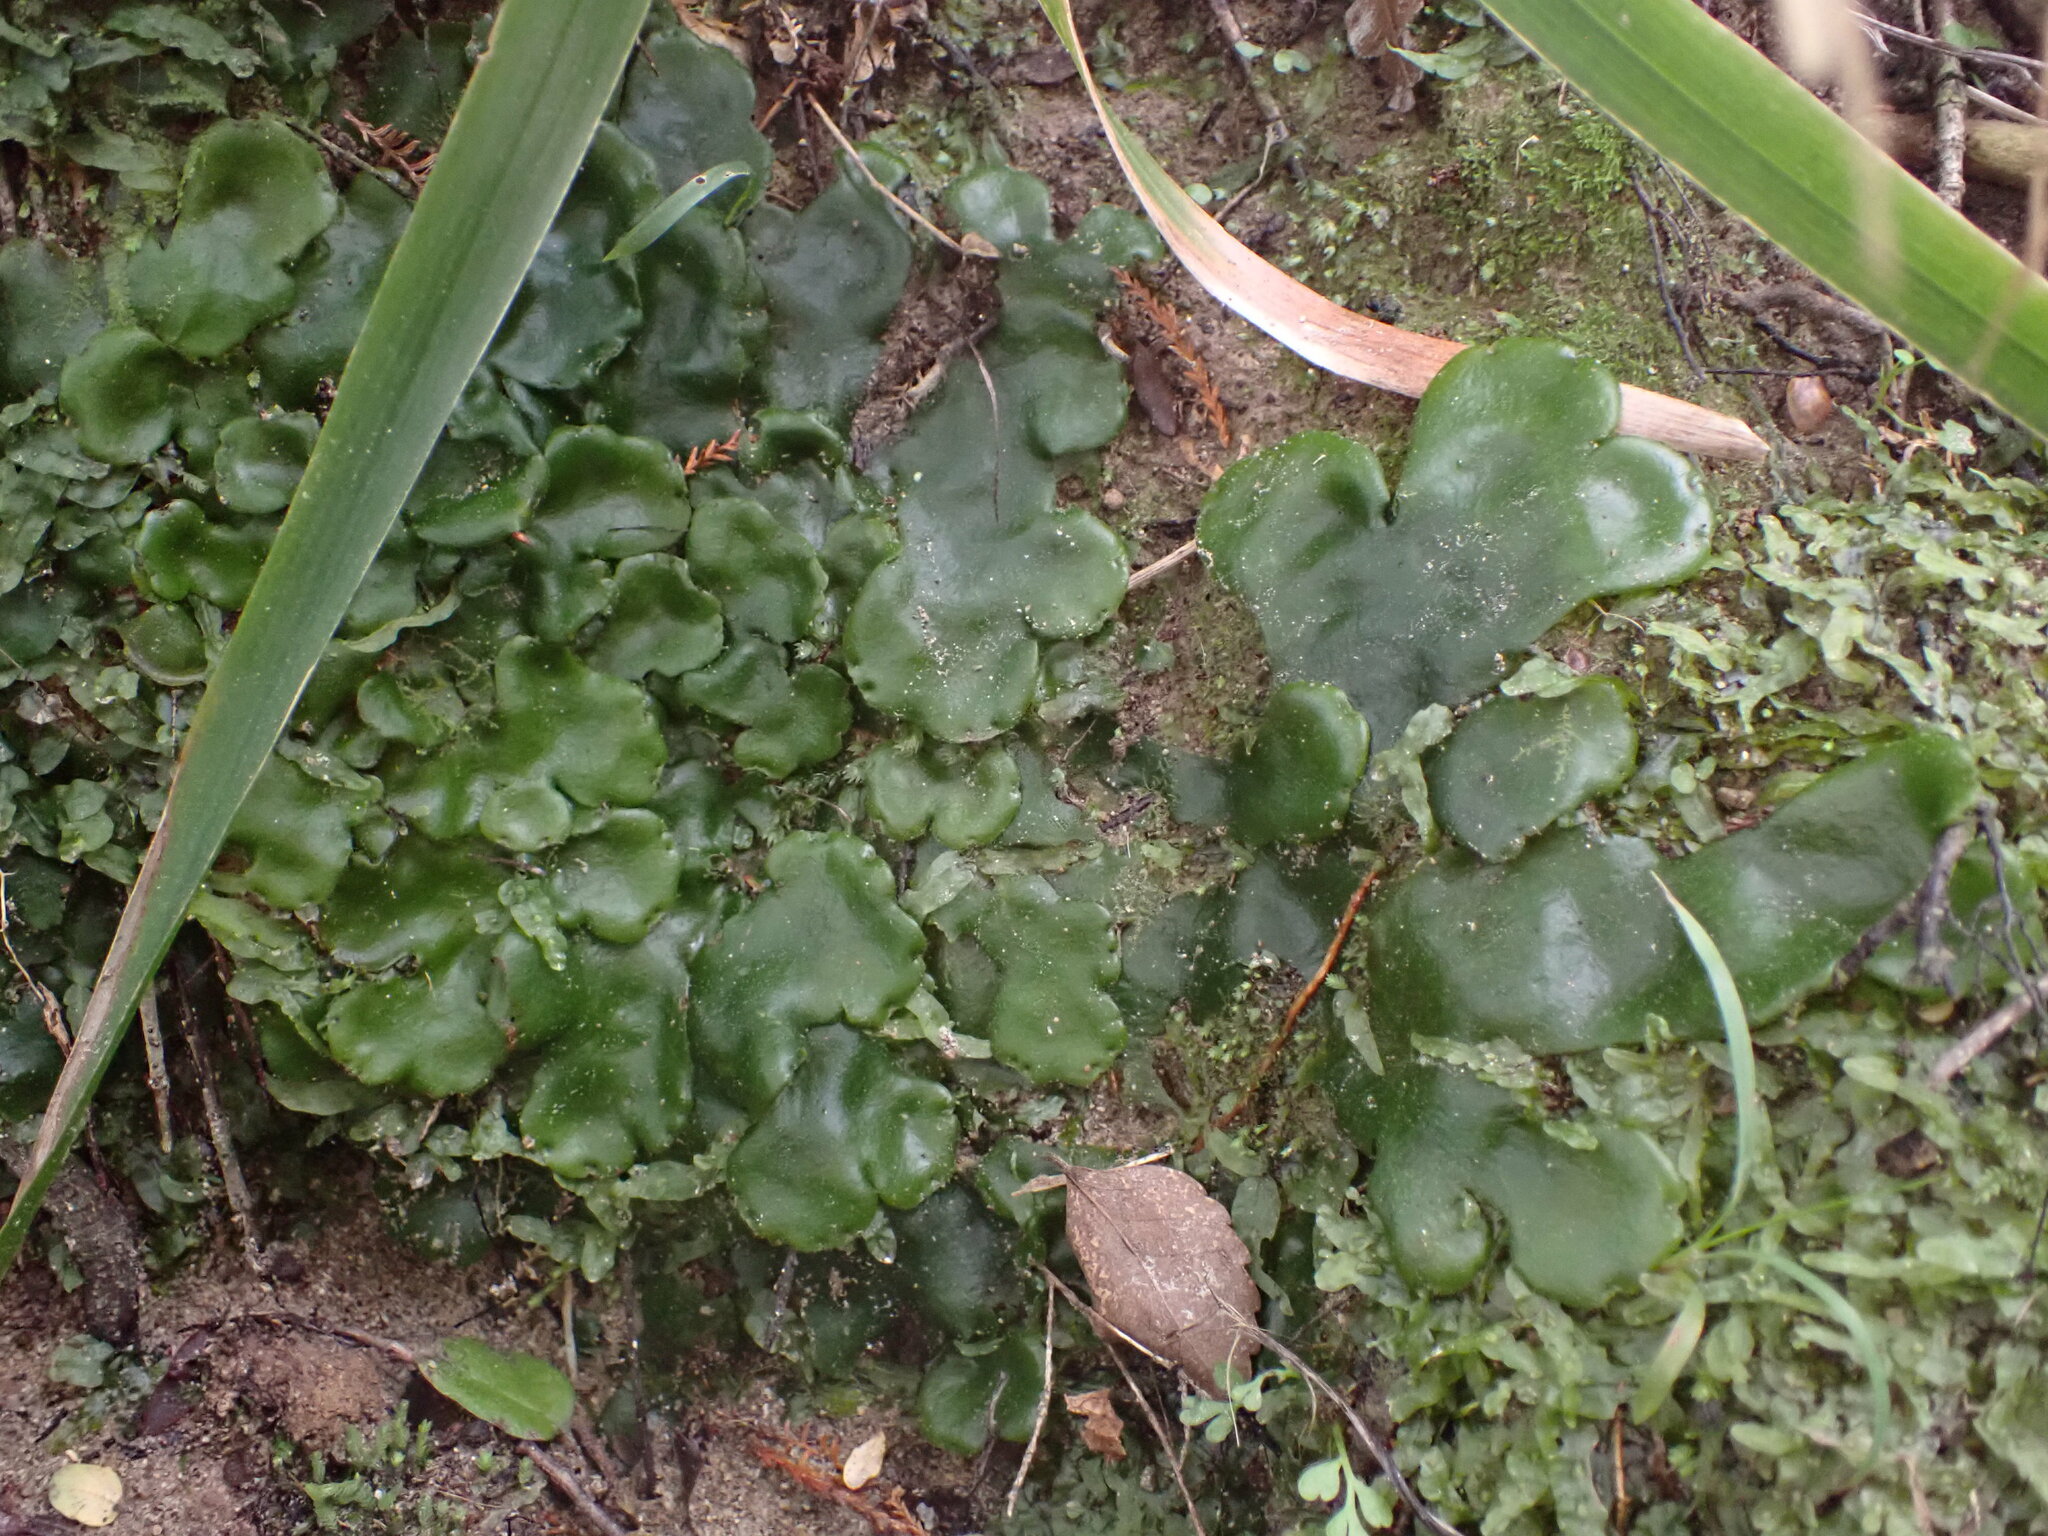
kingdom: Plantae
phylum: Marchantiophyta
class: Marchantiopsida
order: Marchantiales
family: Monocleaceae
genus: Monoclea
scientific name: Monoclea forsteri
